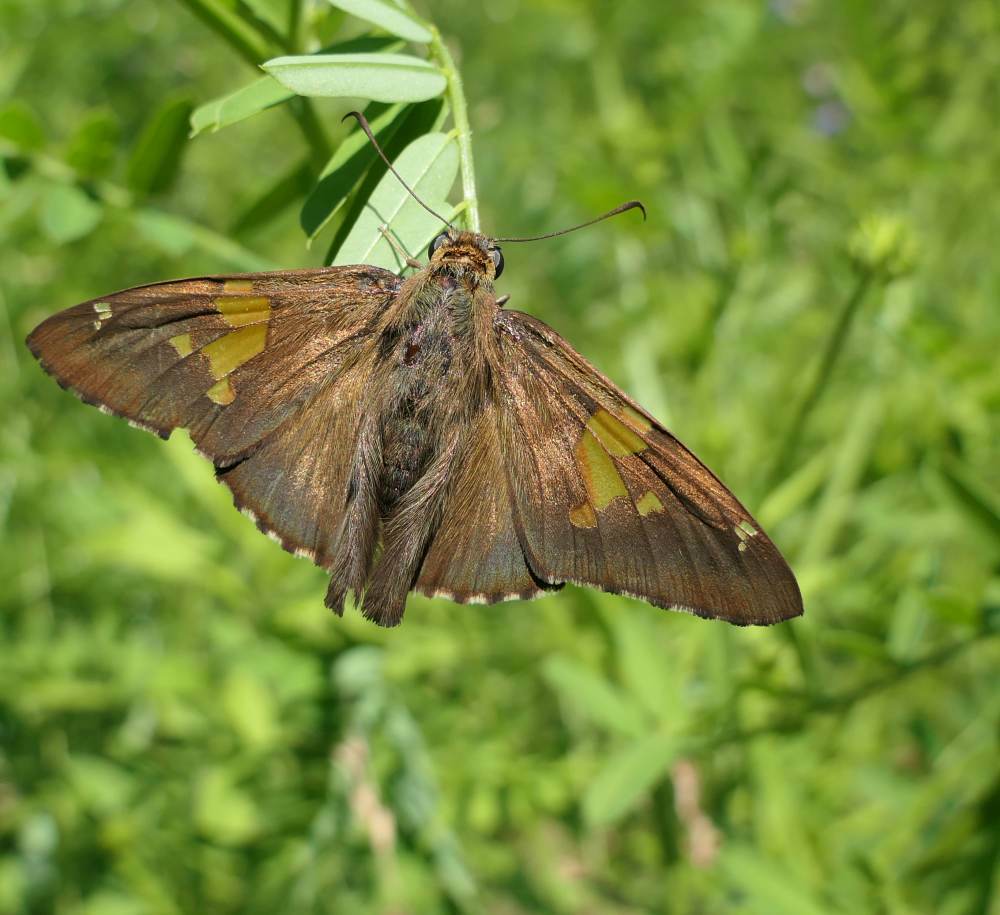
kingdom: Animalia
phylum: Arthropoda
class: Insecta
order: Lepidoptera
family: Hesperiidae
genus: Epargyreus
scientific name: Epargyreus clarus
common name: Silver-spotted skipper
